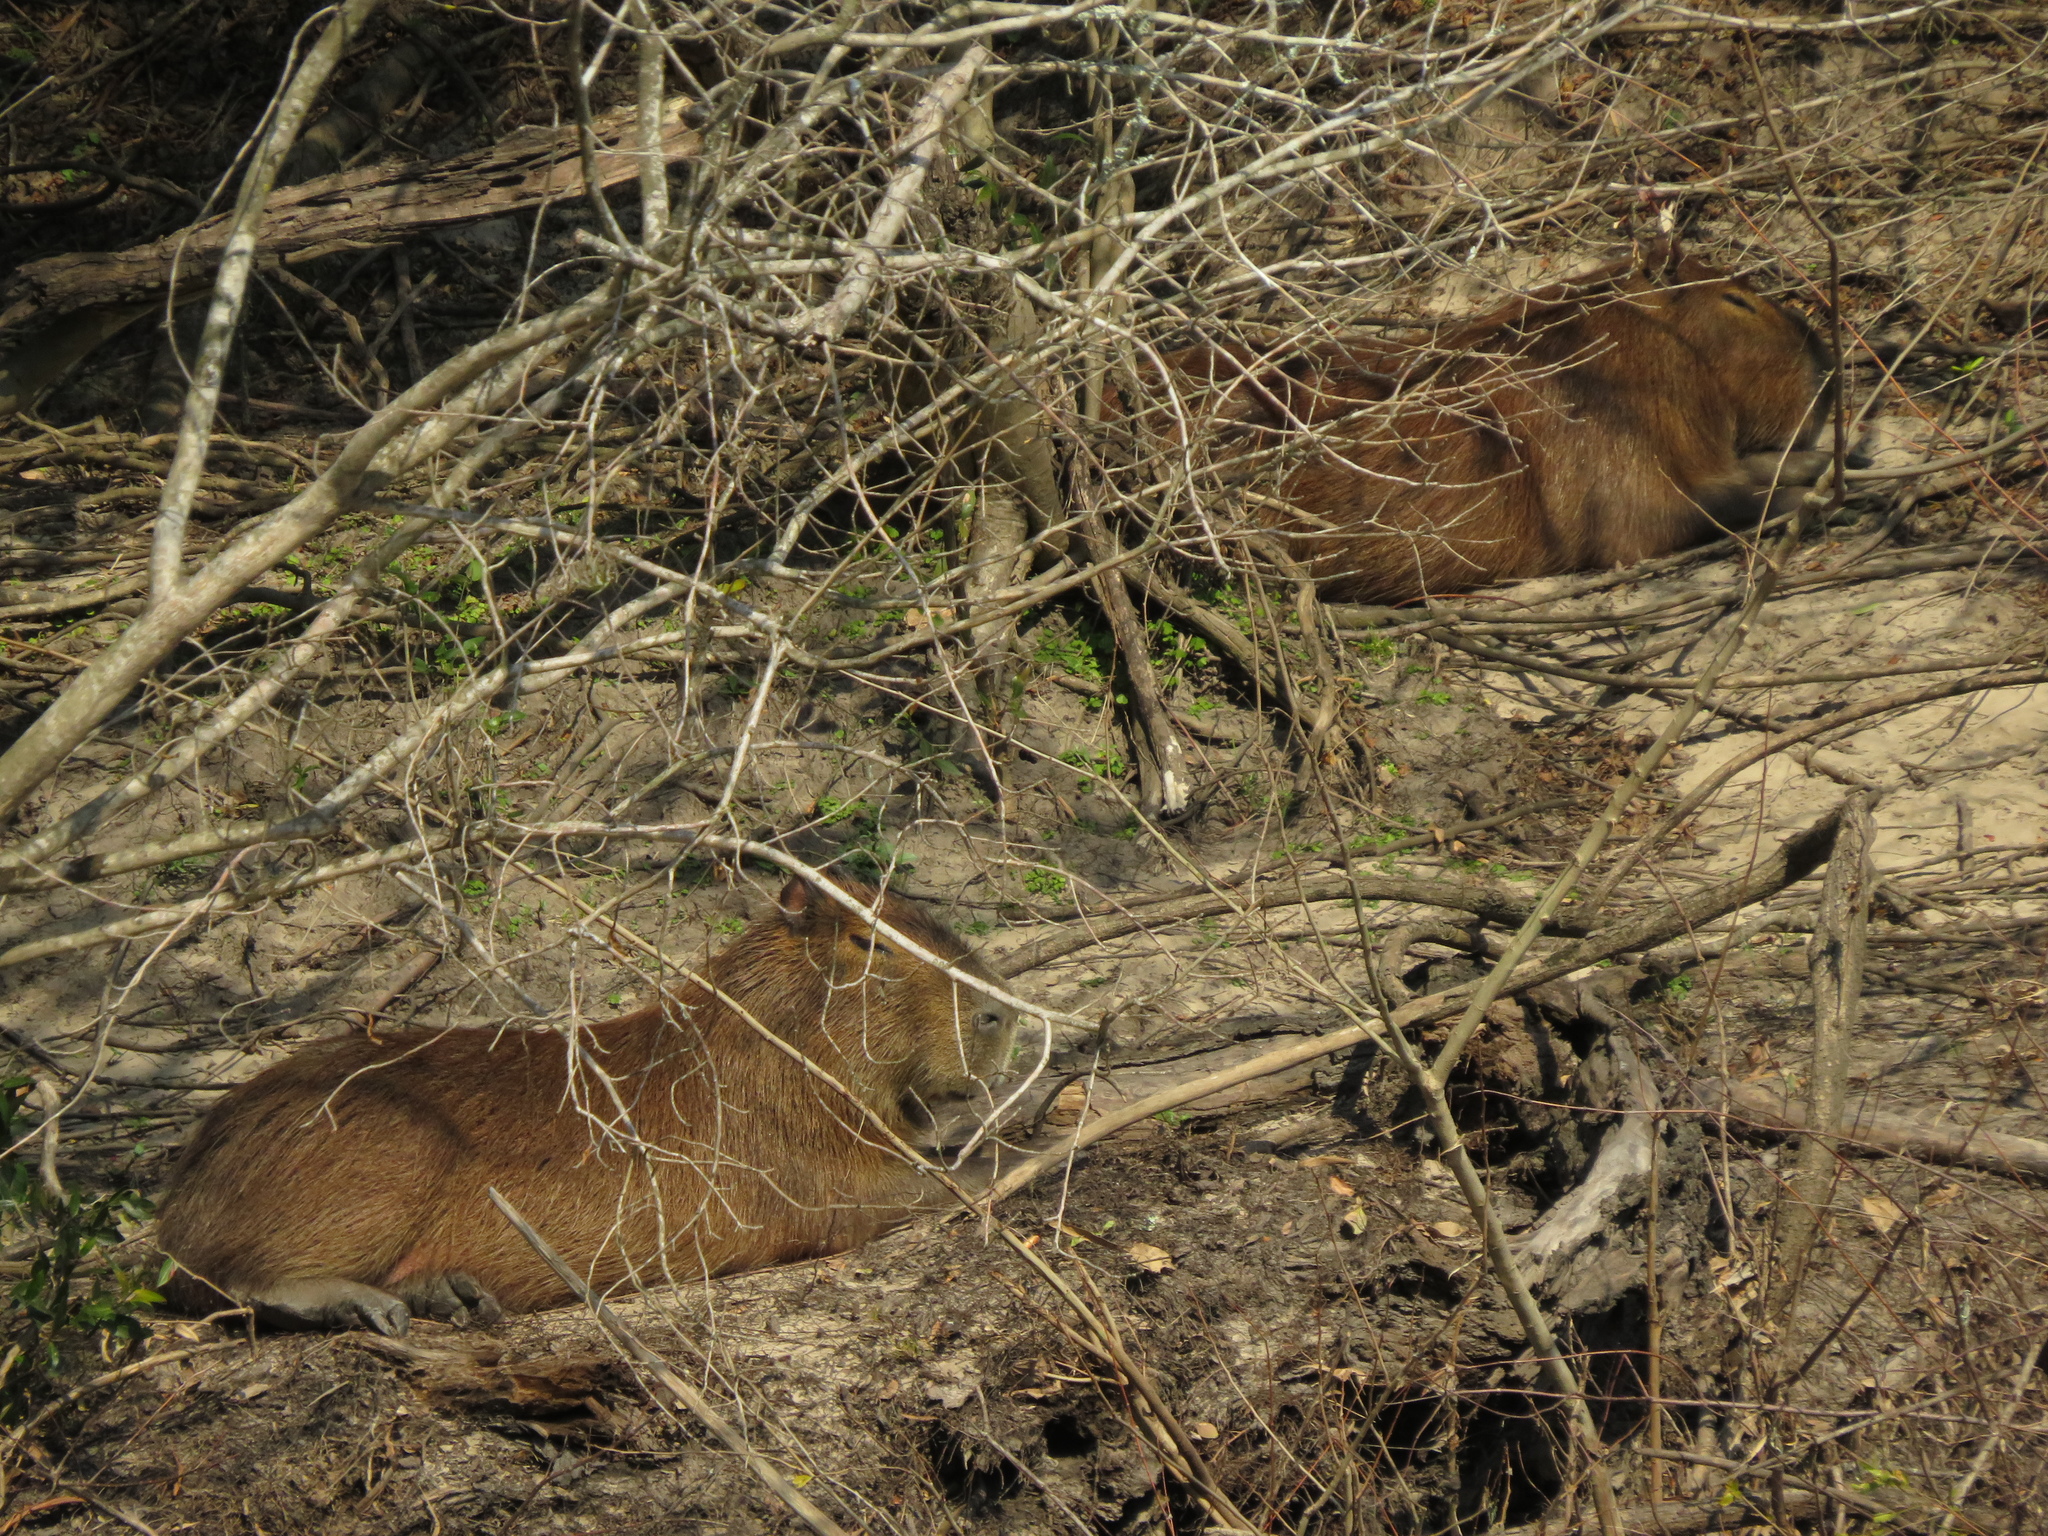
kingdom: Animalia
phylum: Chordata
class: Mammalia
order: Rodentia
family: Caviidae
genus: Hydrochoerus
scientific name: Hydrochoerus hydrochaeris
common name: Capybara
